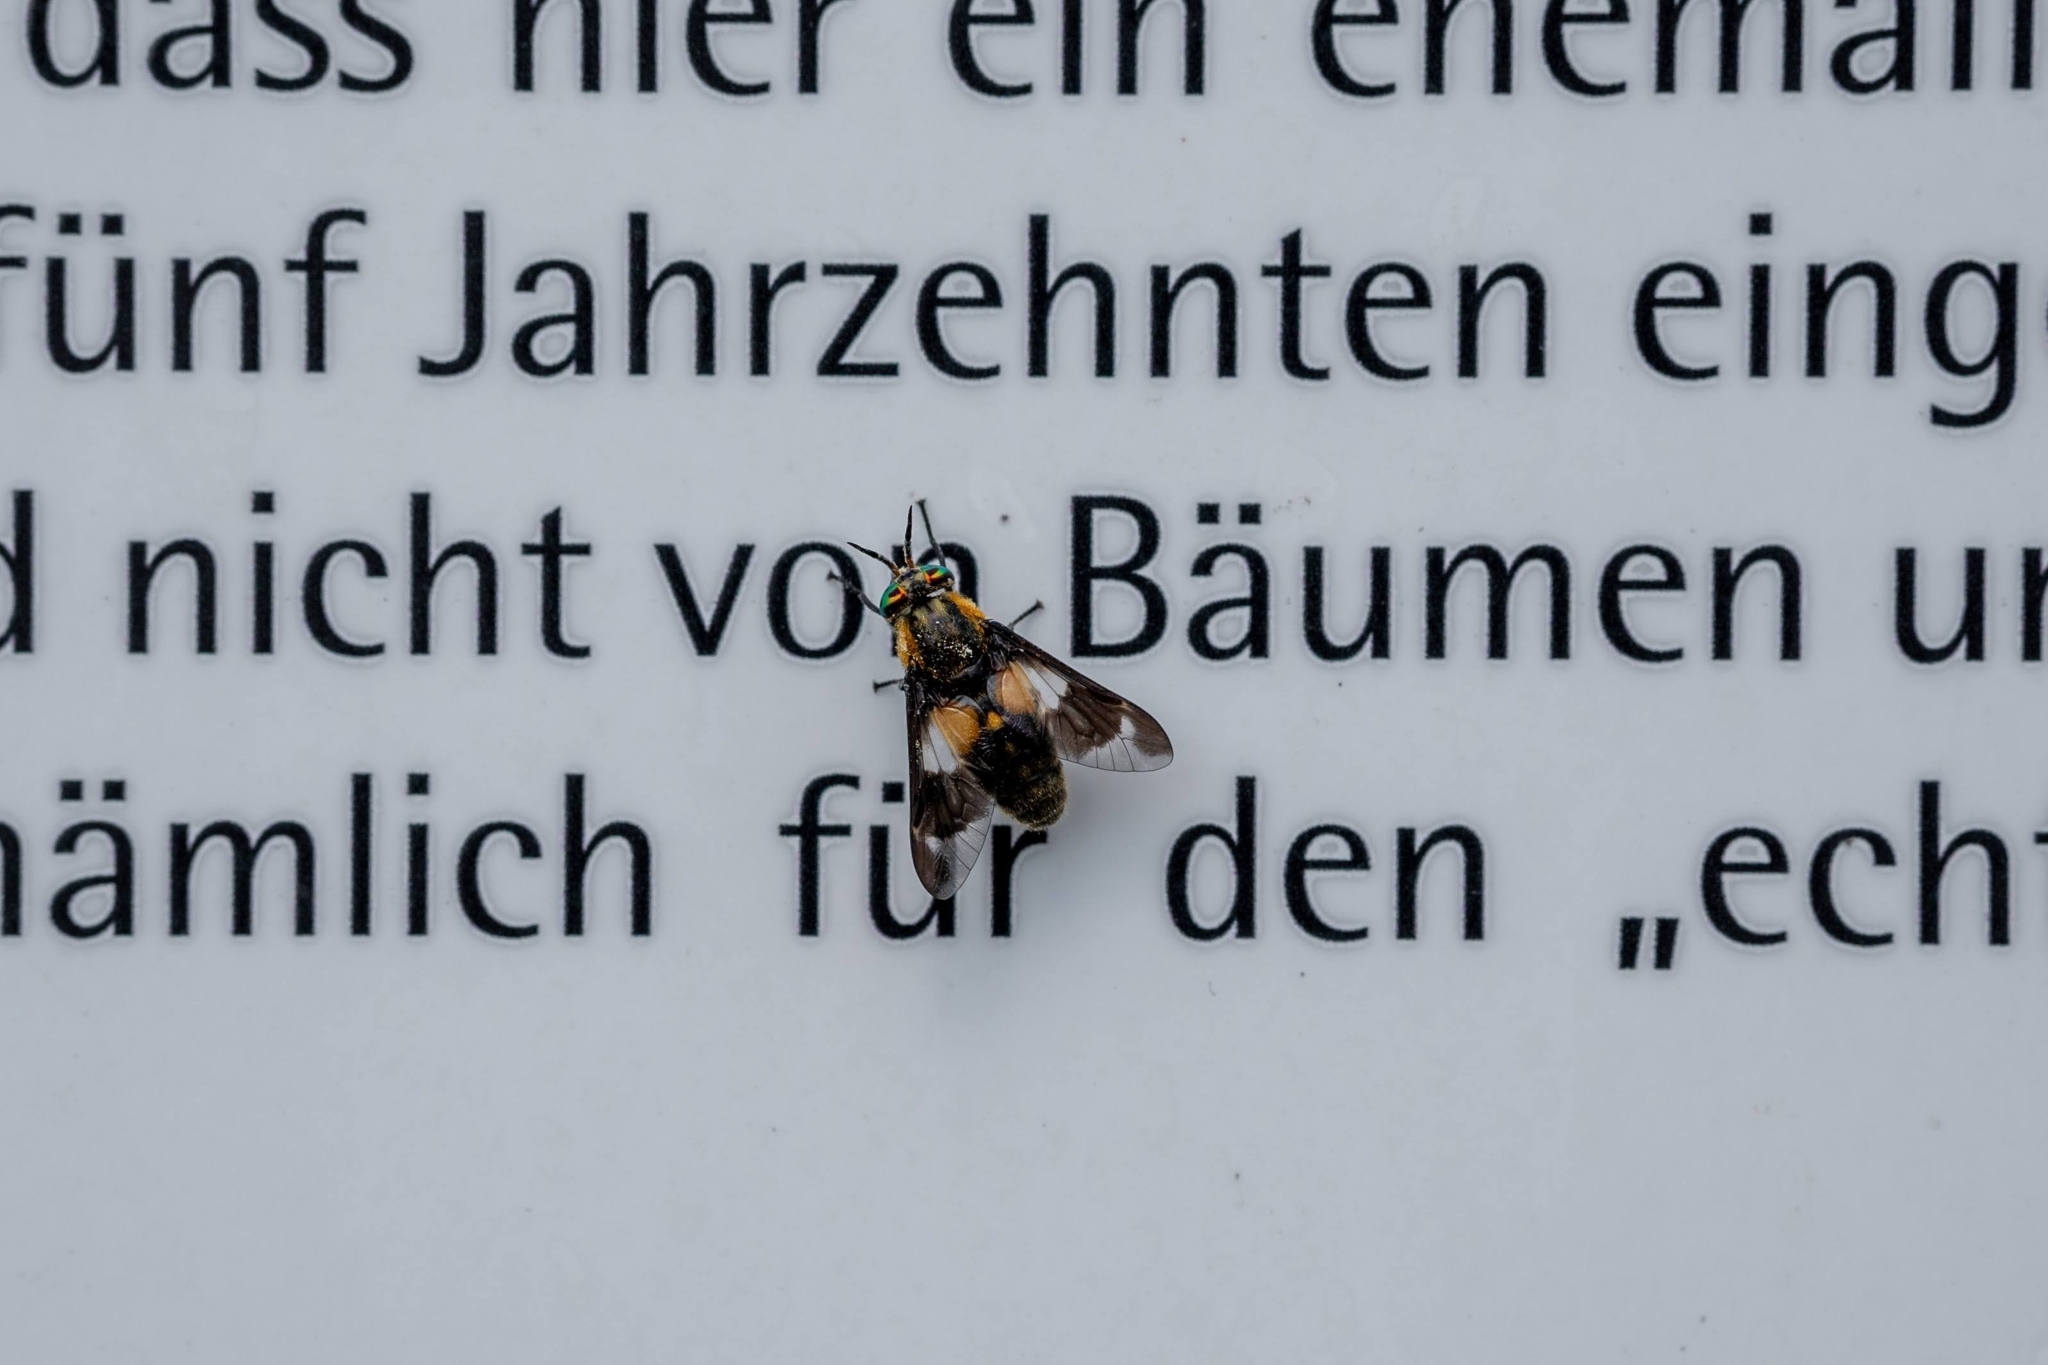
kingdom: Animalia
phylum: Arthropoda
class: Insecta
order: Diptera
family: Tabanidae
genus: Chrysops
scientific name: Chrysops caecutiens
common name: Splayed deerfly
